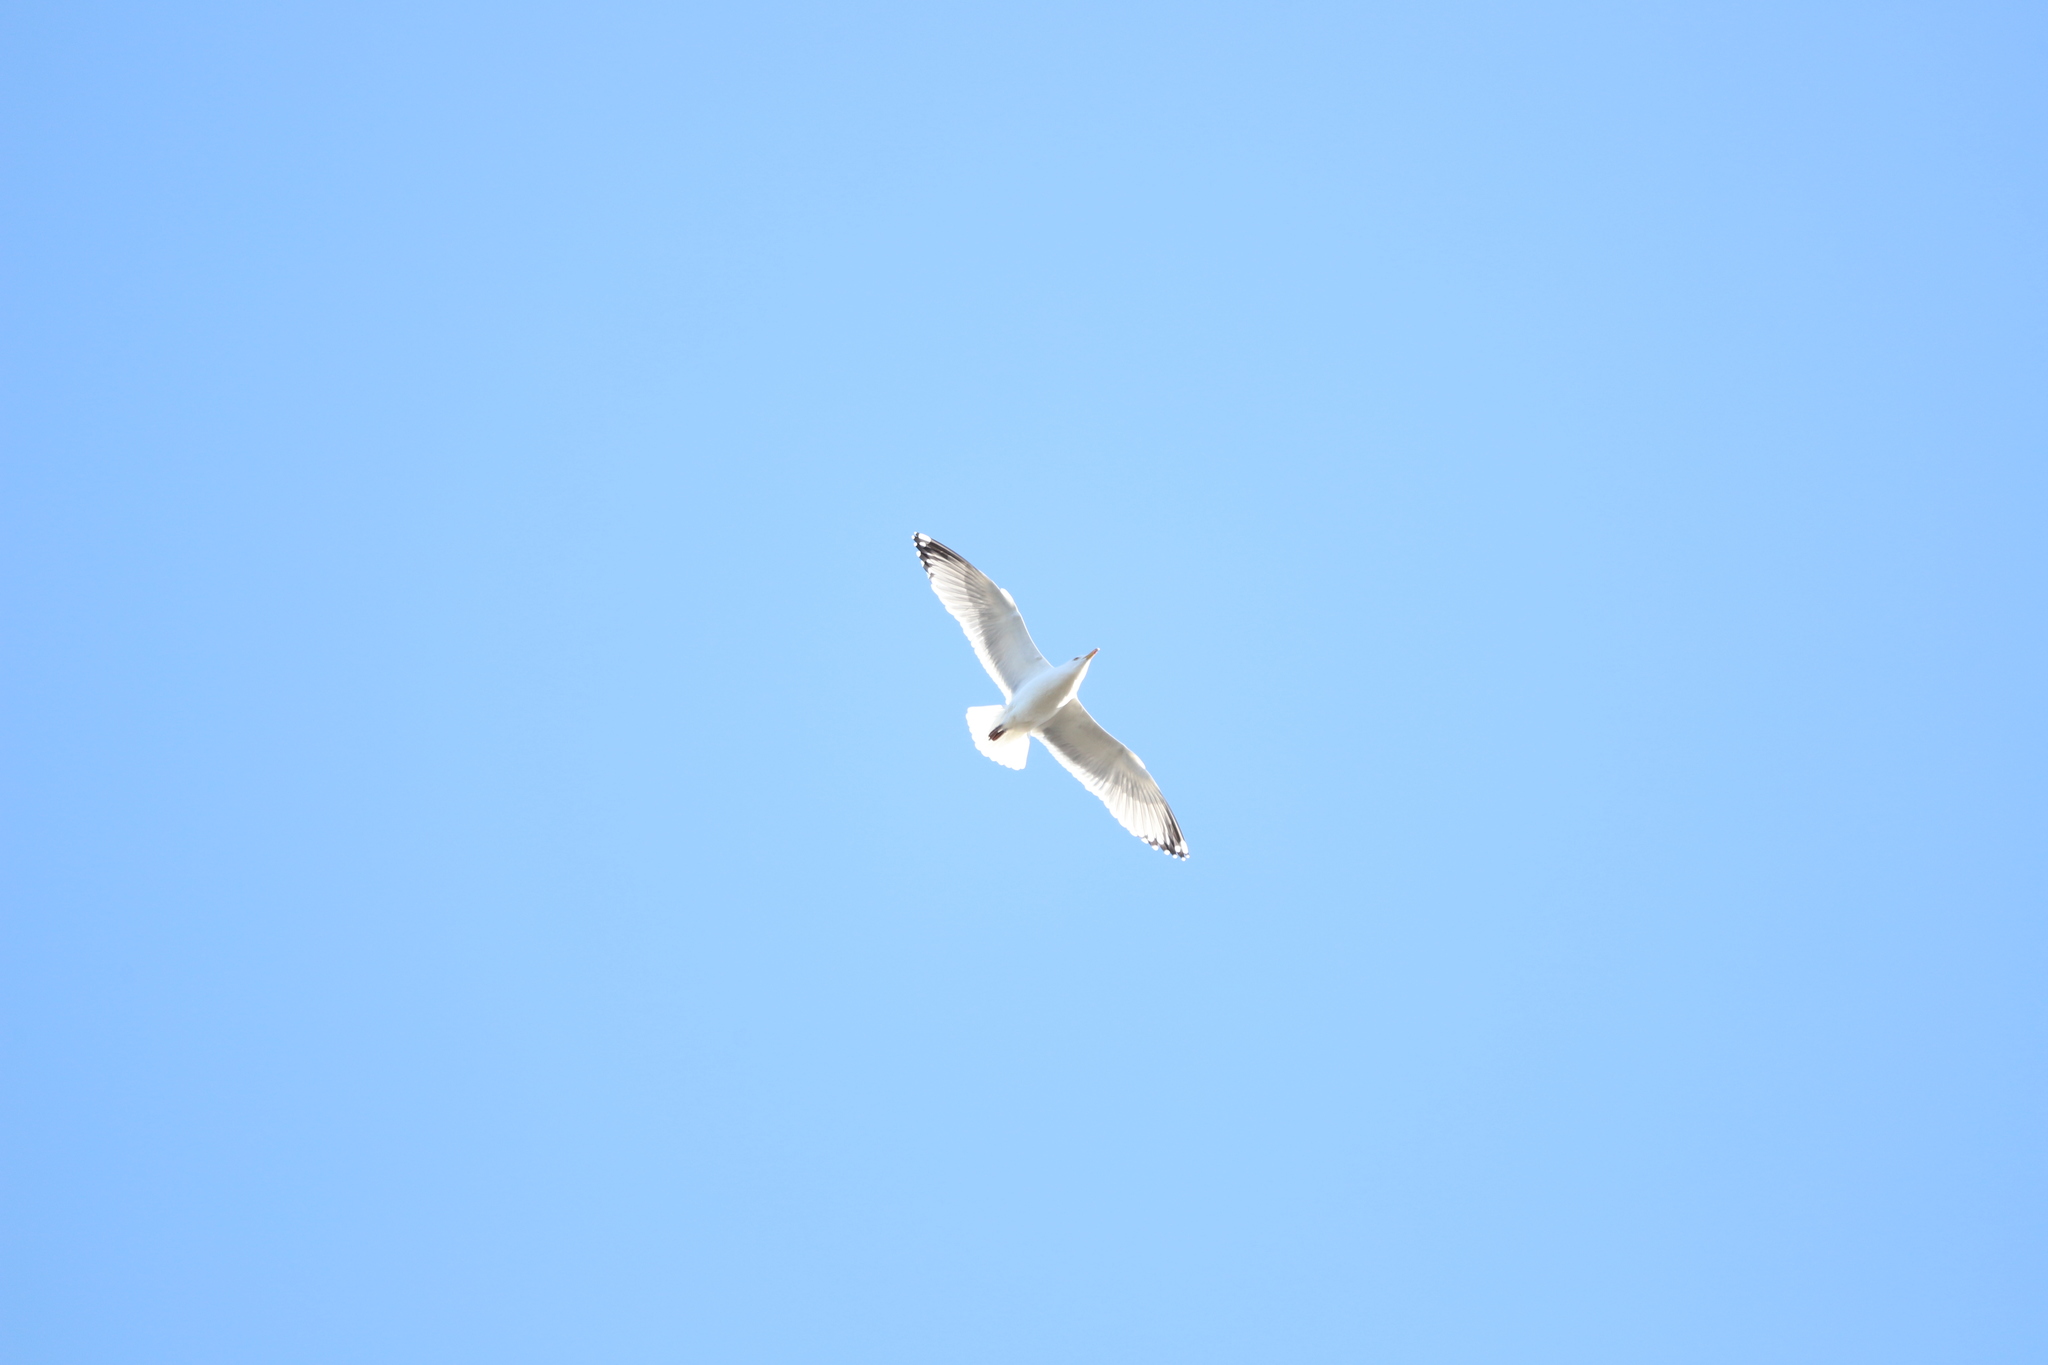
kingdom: Animalia
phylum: Chordata
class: Aves
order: Charadriiformes
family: Laridae
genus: Larus
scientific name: Larus argentatus
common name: Herring gull
